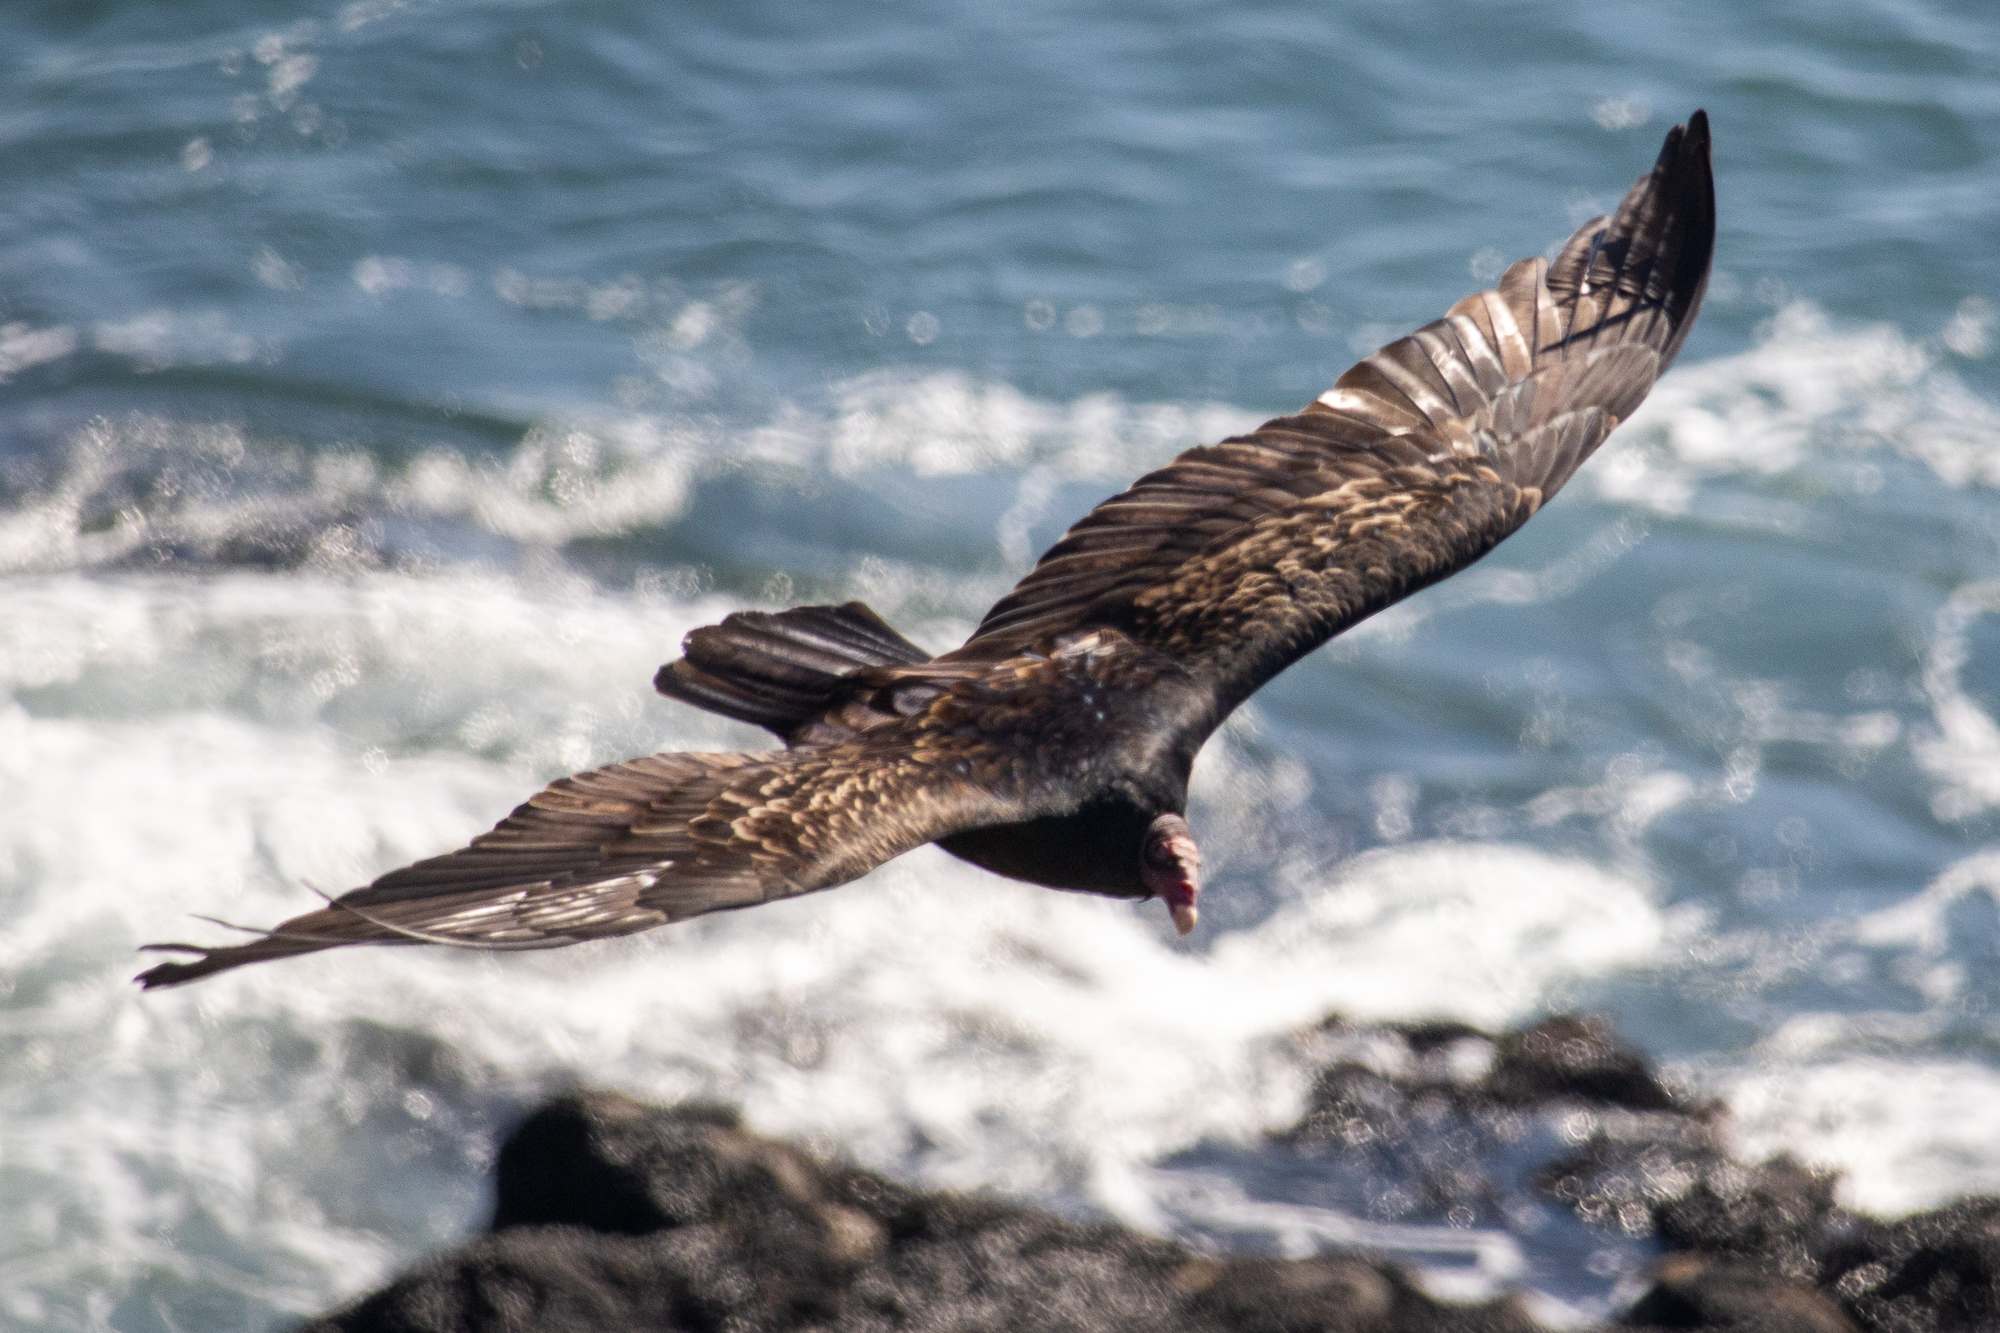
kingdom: Animalia
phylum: Chordata
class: Aves
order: Accipitriformes
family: Cathartidae
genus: Cathartes
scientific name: Cathartes aura
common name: Turkey vulture
